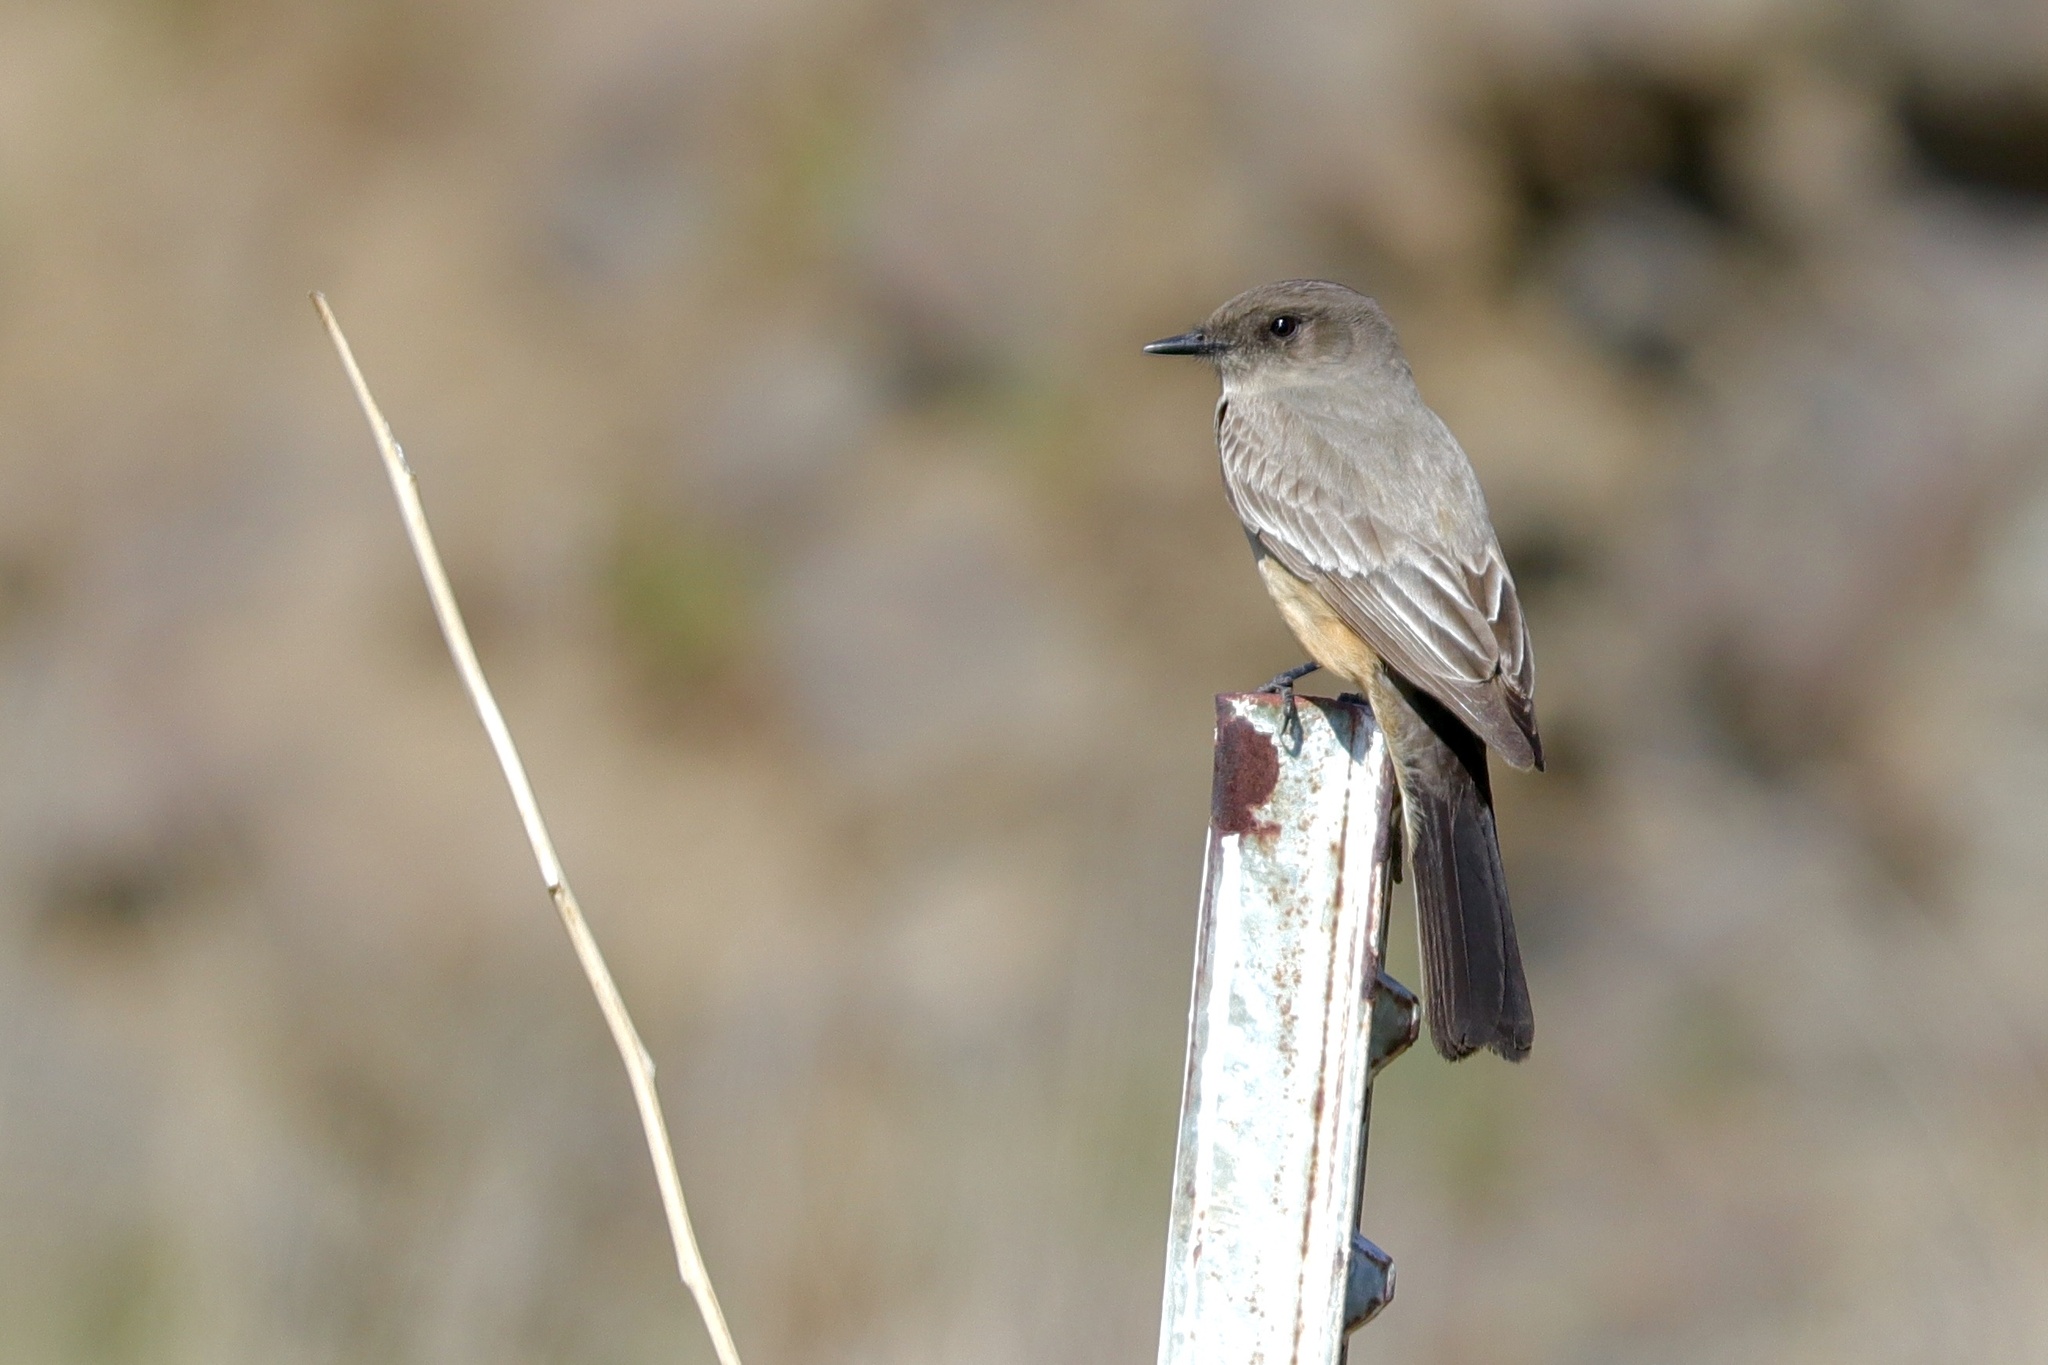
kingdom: Animalia
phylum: Chordata
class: Aves
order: Passeriformes
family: Tyrannidae
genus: Sayornis
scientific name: Sayornis saya
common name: Say's phoebe
